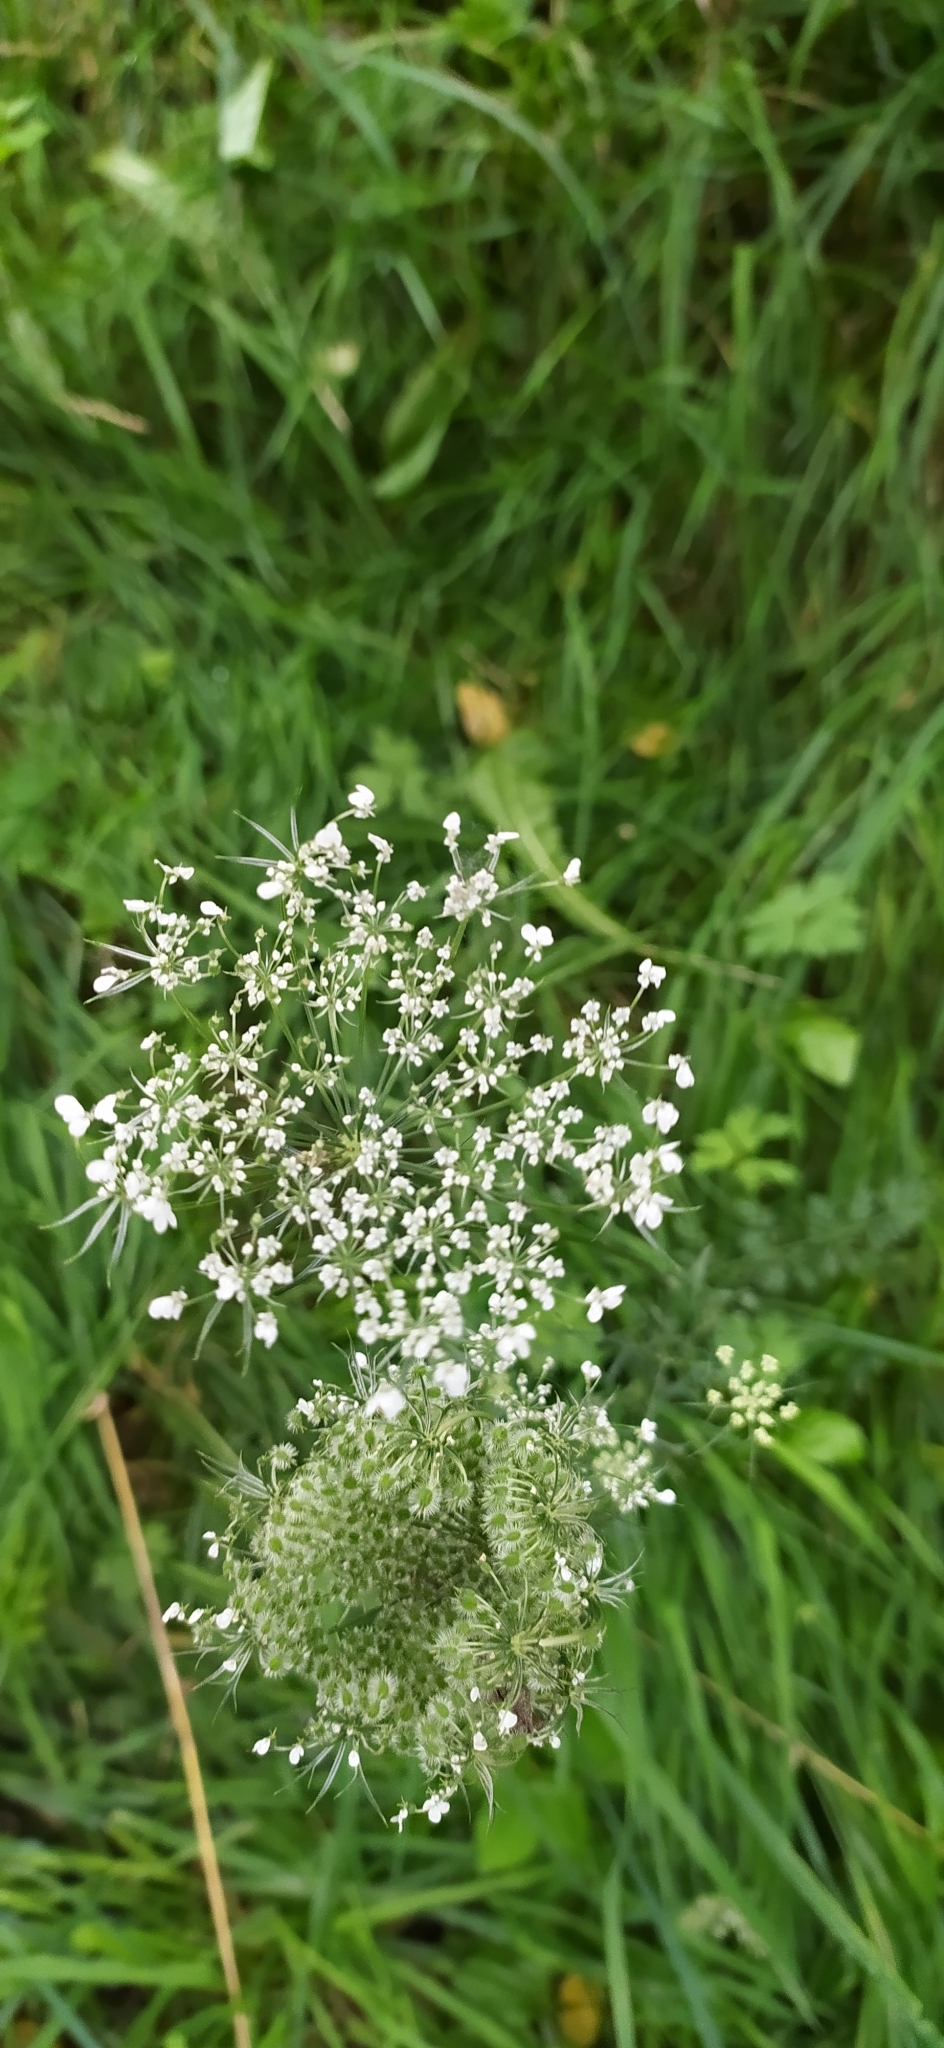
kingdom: Plantae
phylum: Tracheophyta
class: Magnoliopsida
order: Apiales
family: Apiaceae
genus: Daucus
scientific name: Daucus carota
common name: Wild carrot
